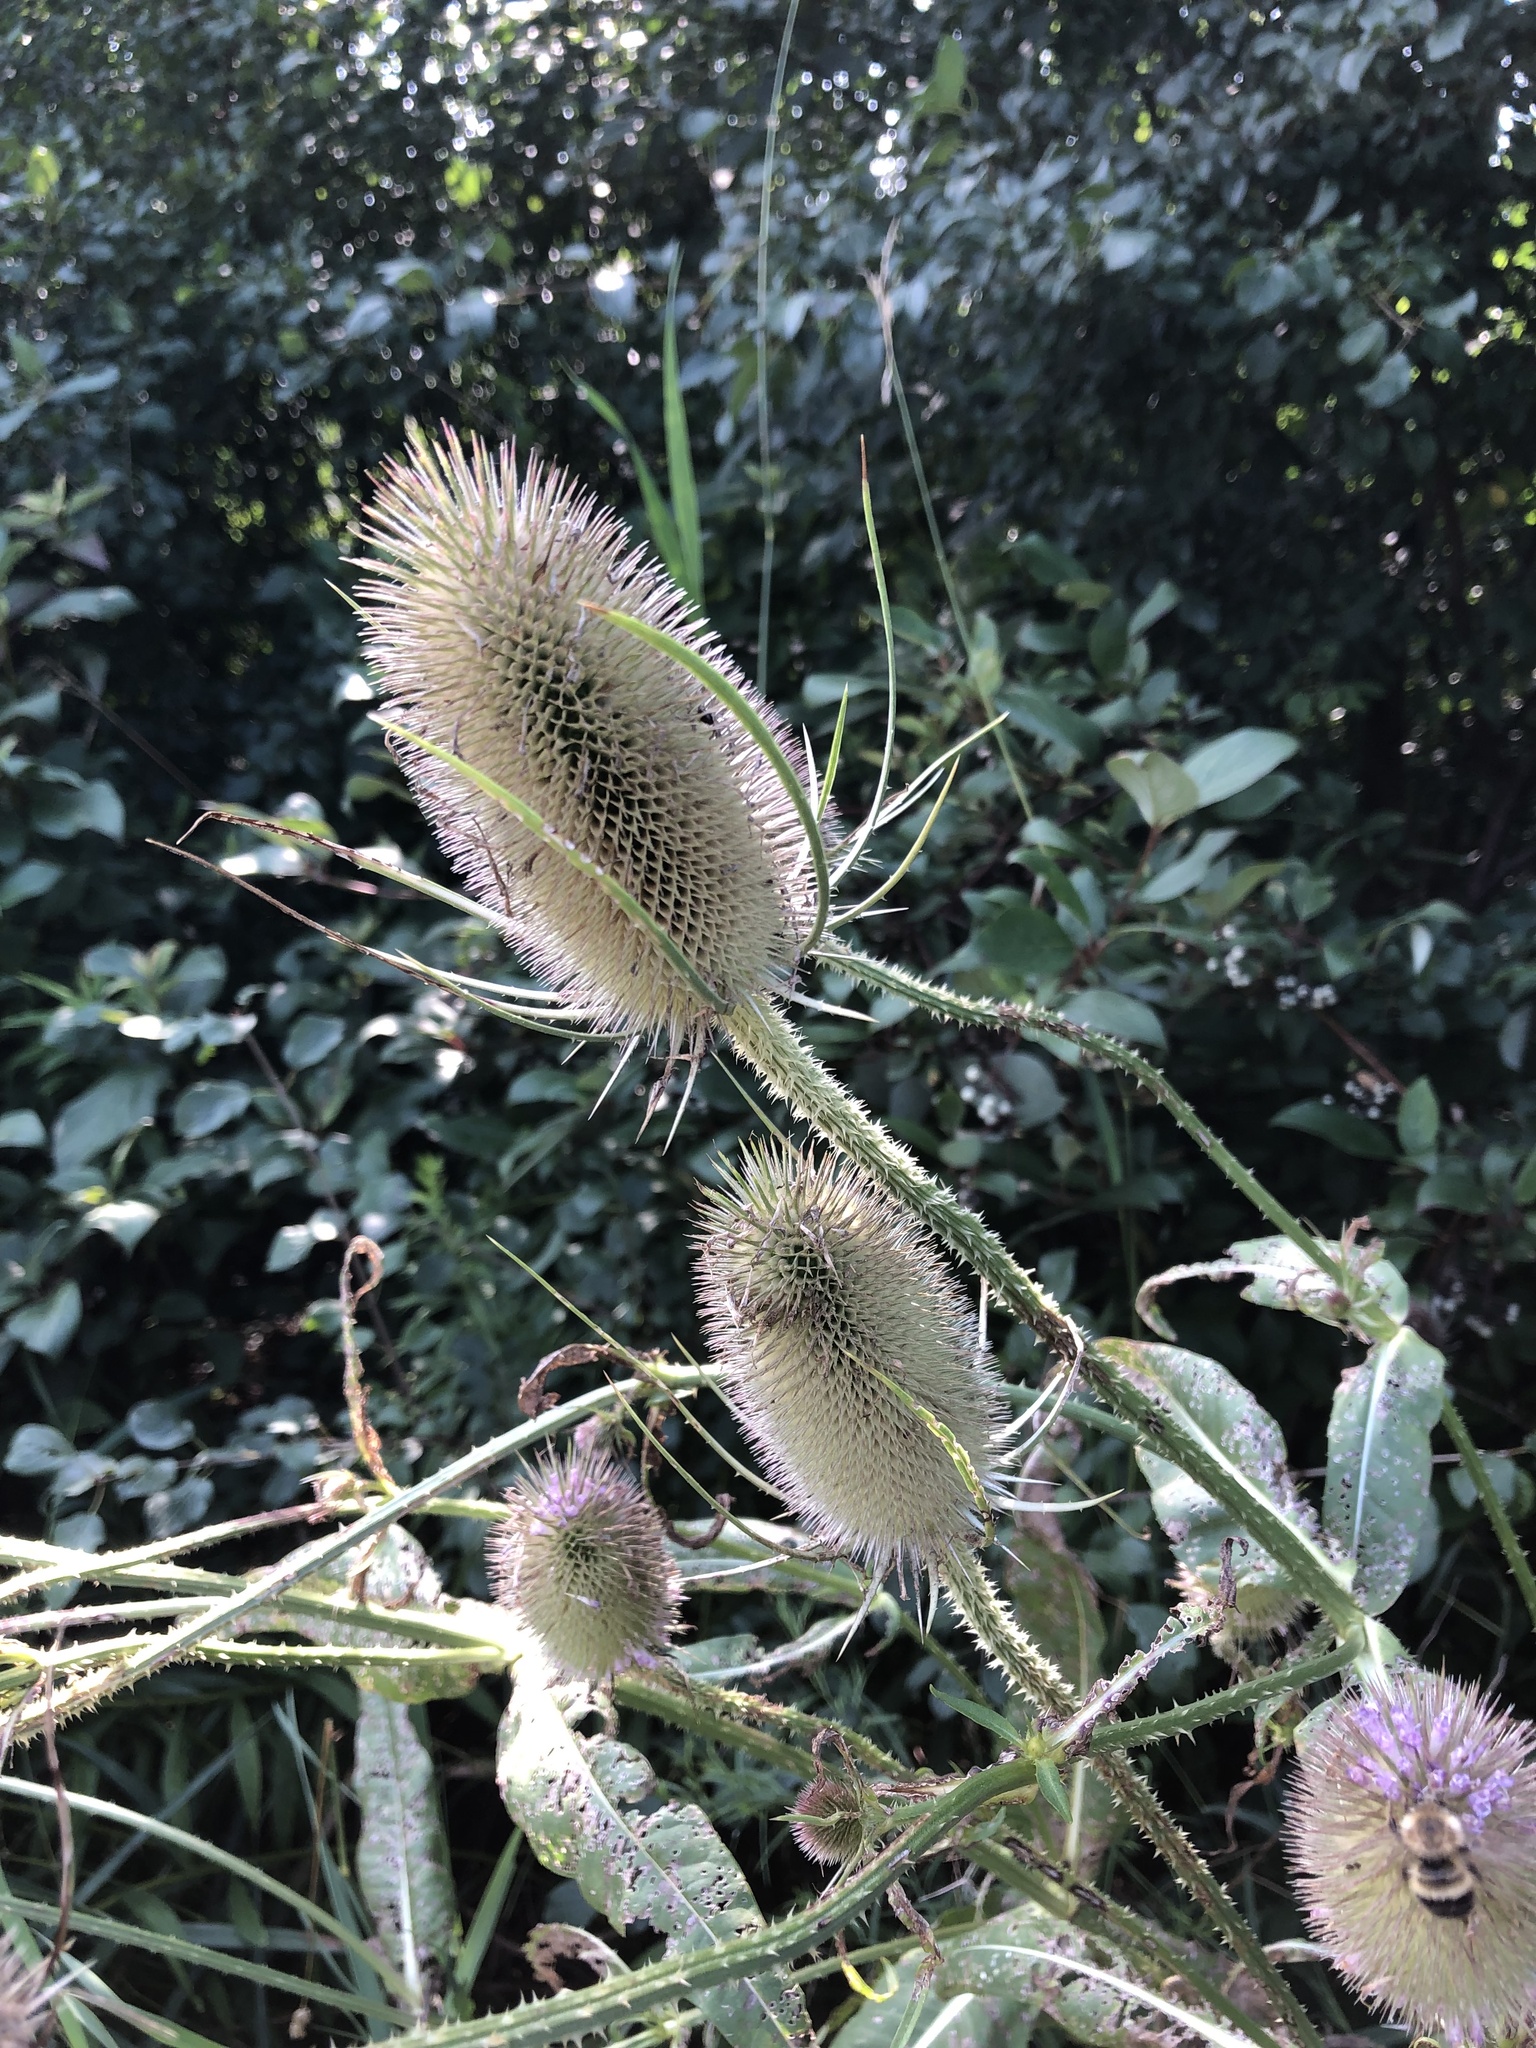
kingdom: Plantae
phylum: Tracheophyta
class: Magnoliopsida
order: Dipsacales
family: Caprifoliaceae
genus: Dipsacus
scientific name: Dipsacus fullonum
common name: Teasel
